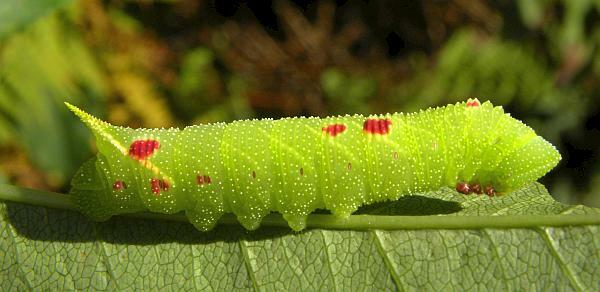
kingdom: Animalia
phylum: Arthropoda
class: Insecta
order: Lepidoptera
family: Sphingidae
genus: Paonias
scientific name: Paonias myops
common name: Small-eyed sphinx
